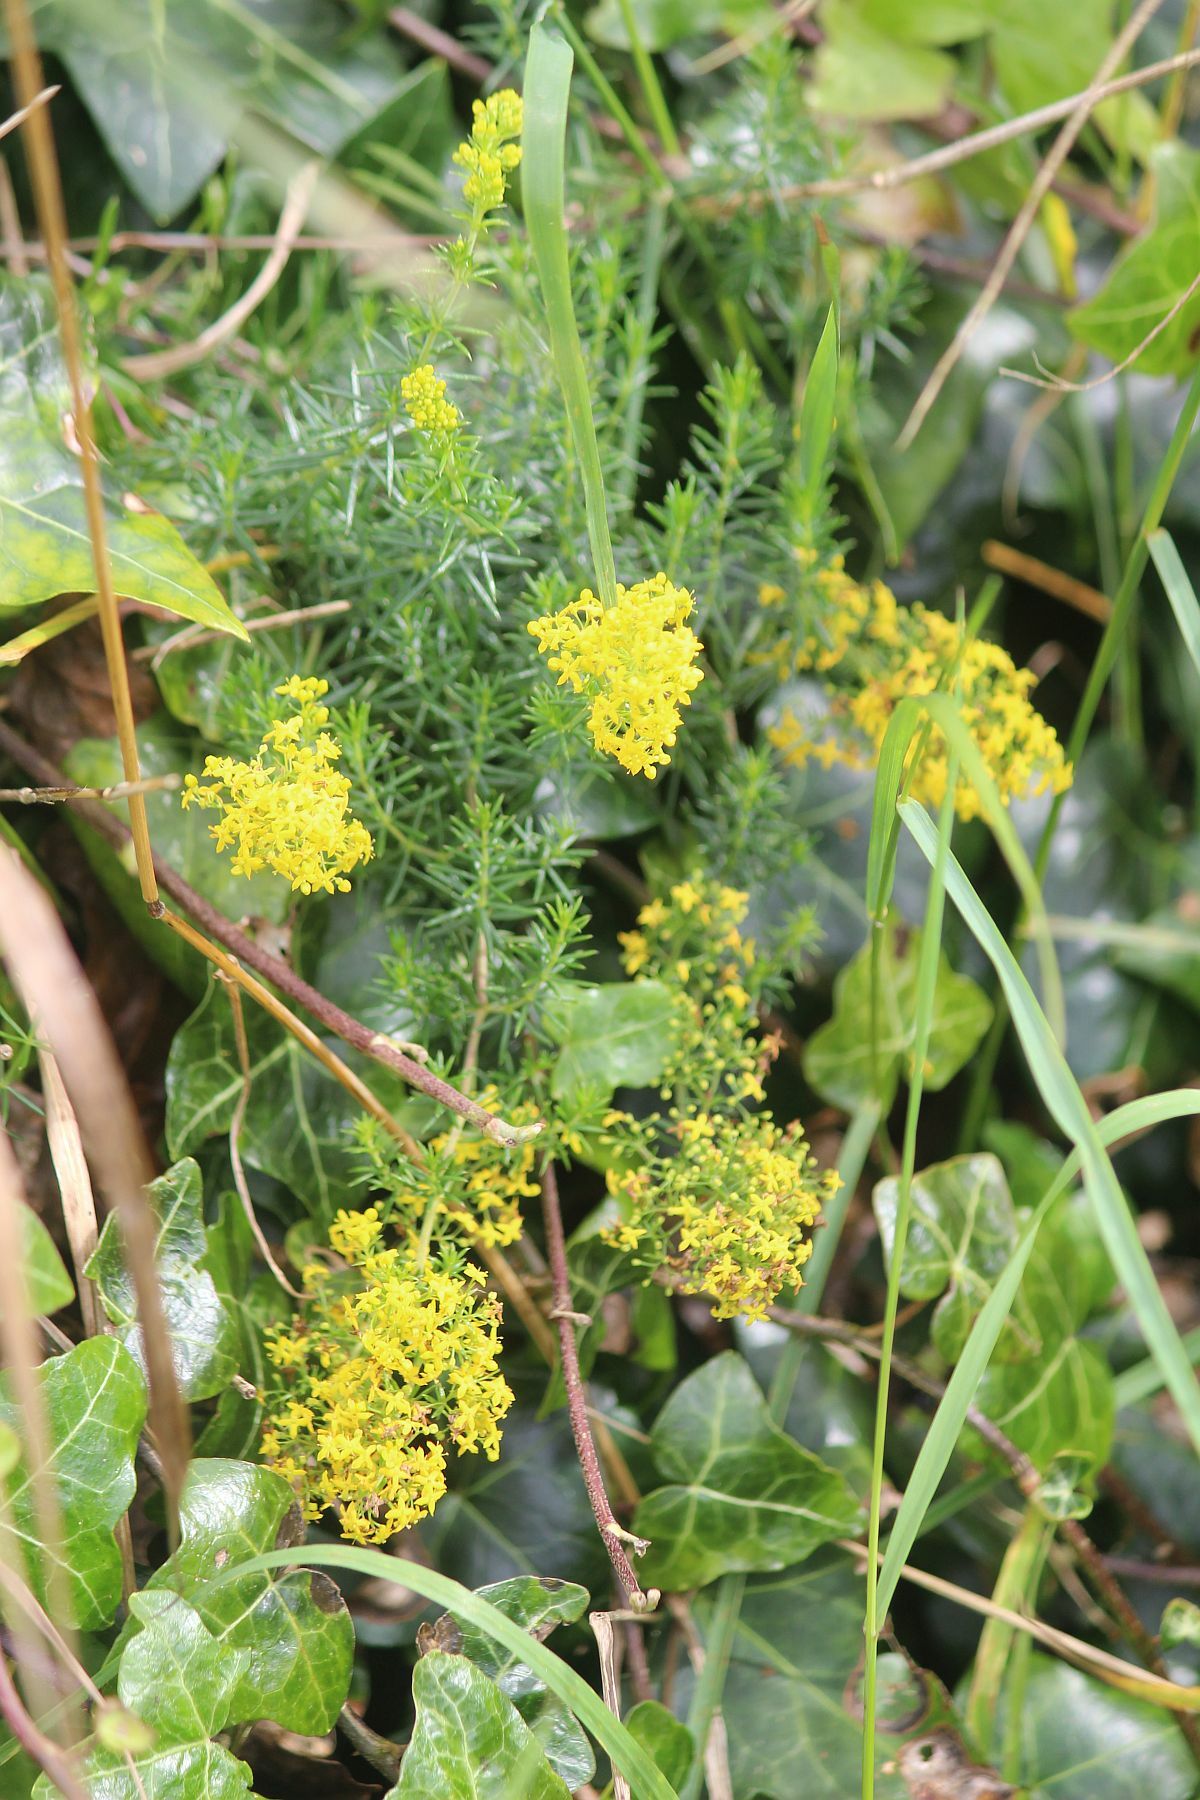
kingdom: Plantae
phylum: Tracheophyta
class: Magnoliopsida
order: Gentianales
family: Rubiaceae
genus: Galium
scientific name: Galium verum
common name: Lady's bedstraw
